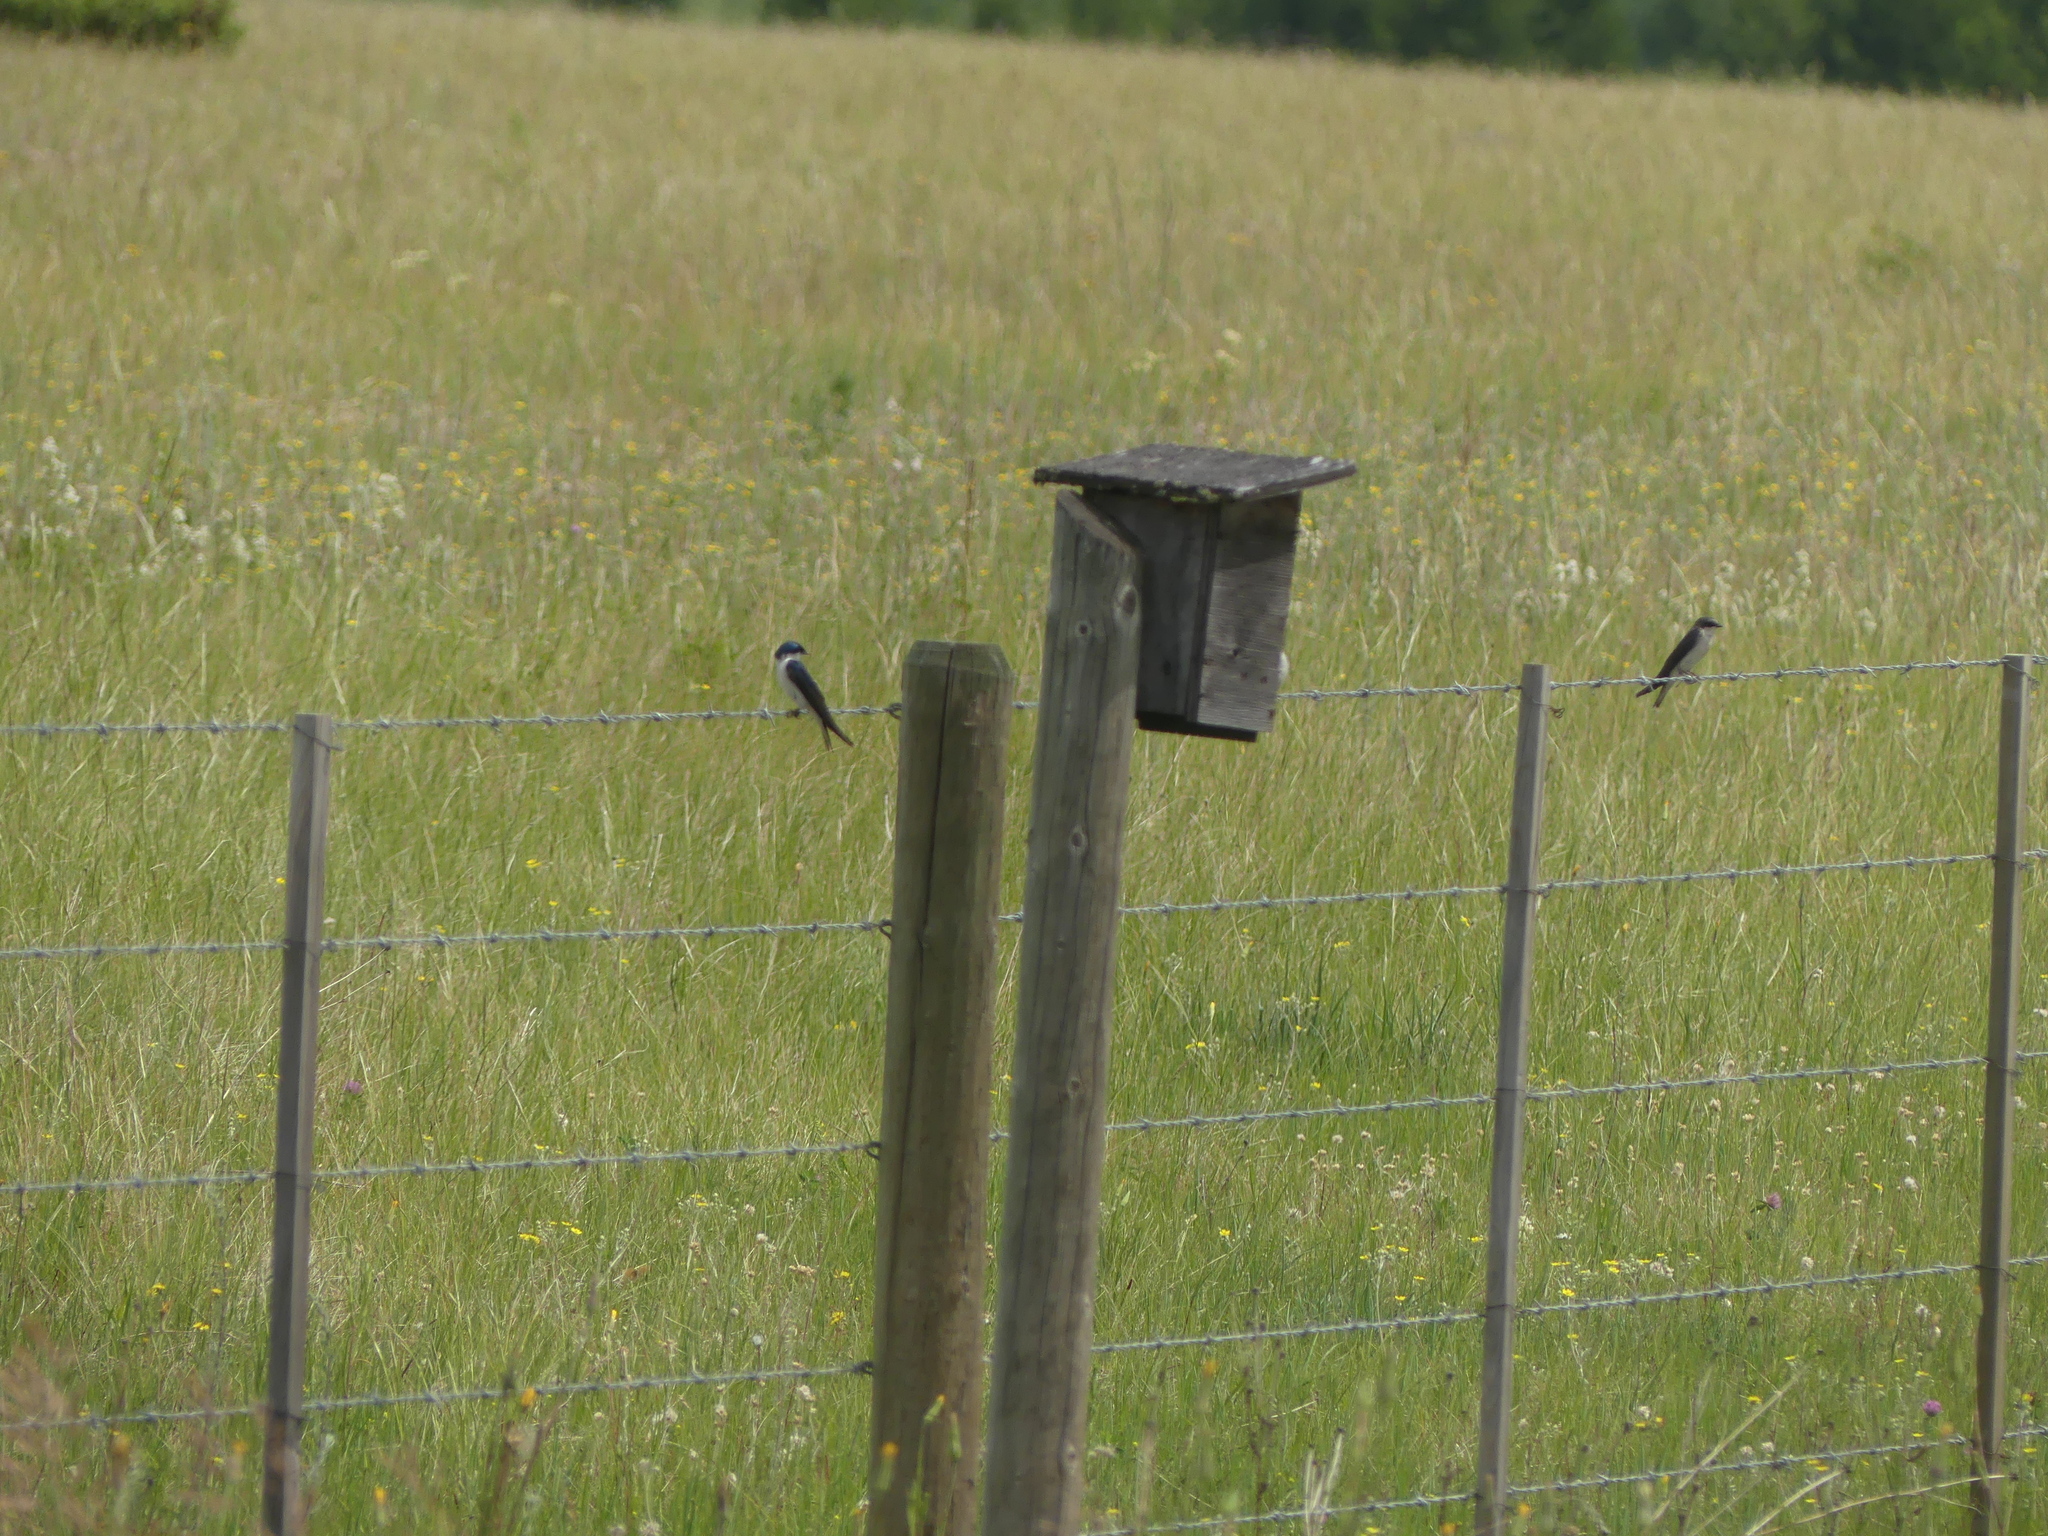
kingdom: Animalia
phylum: Chordata
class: Aves
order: Passeriformes
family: Hirundinidae
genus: Tachycineta
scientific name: Tachycineta bicolor
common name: Tree swallow
